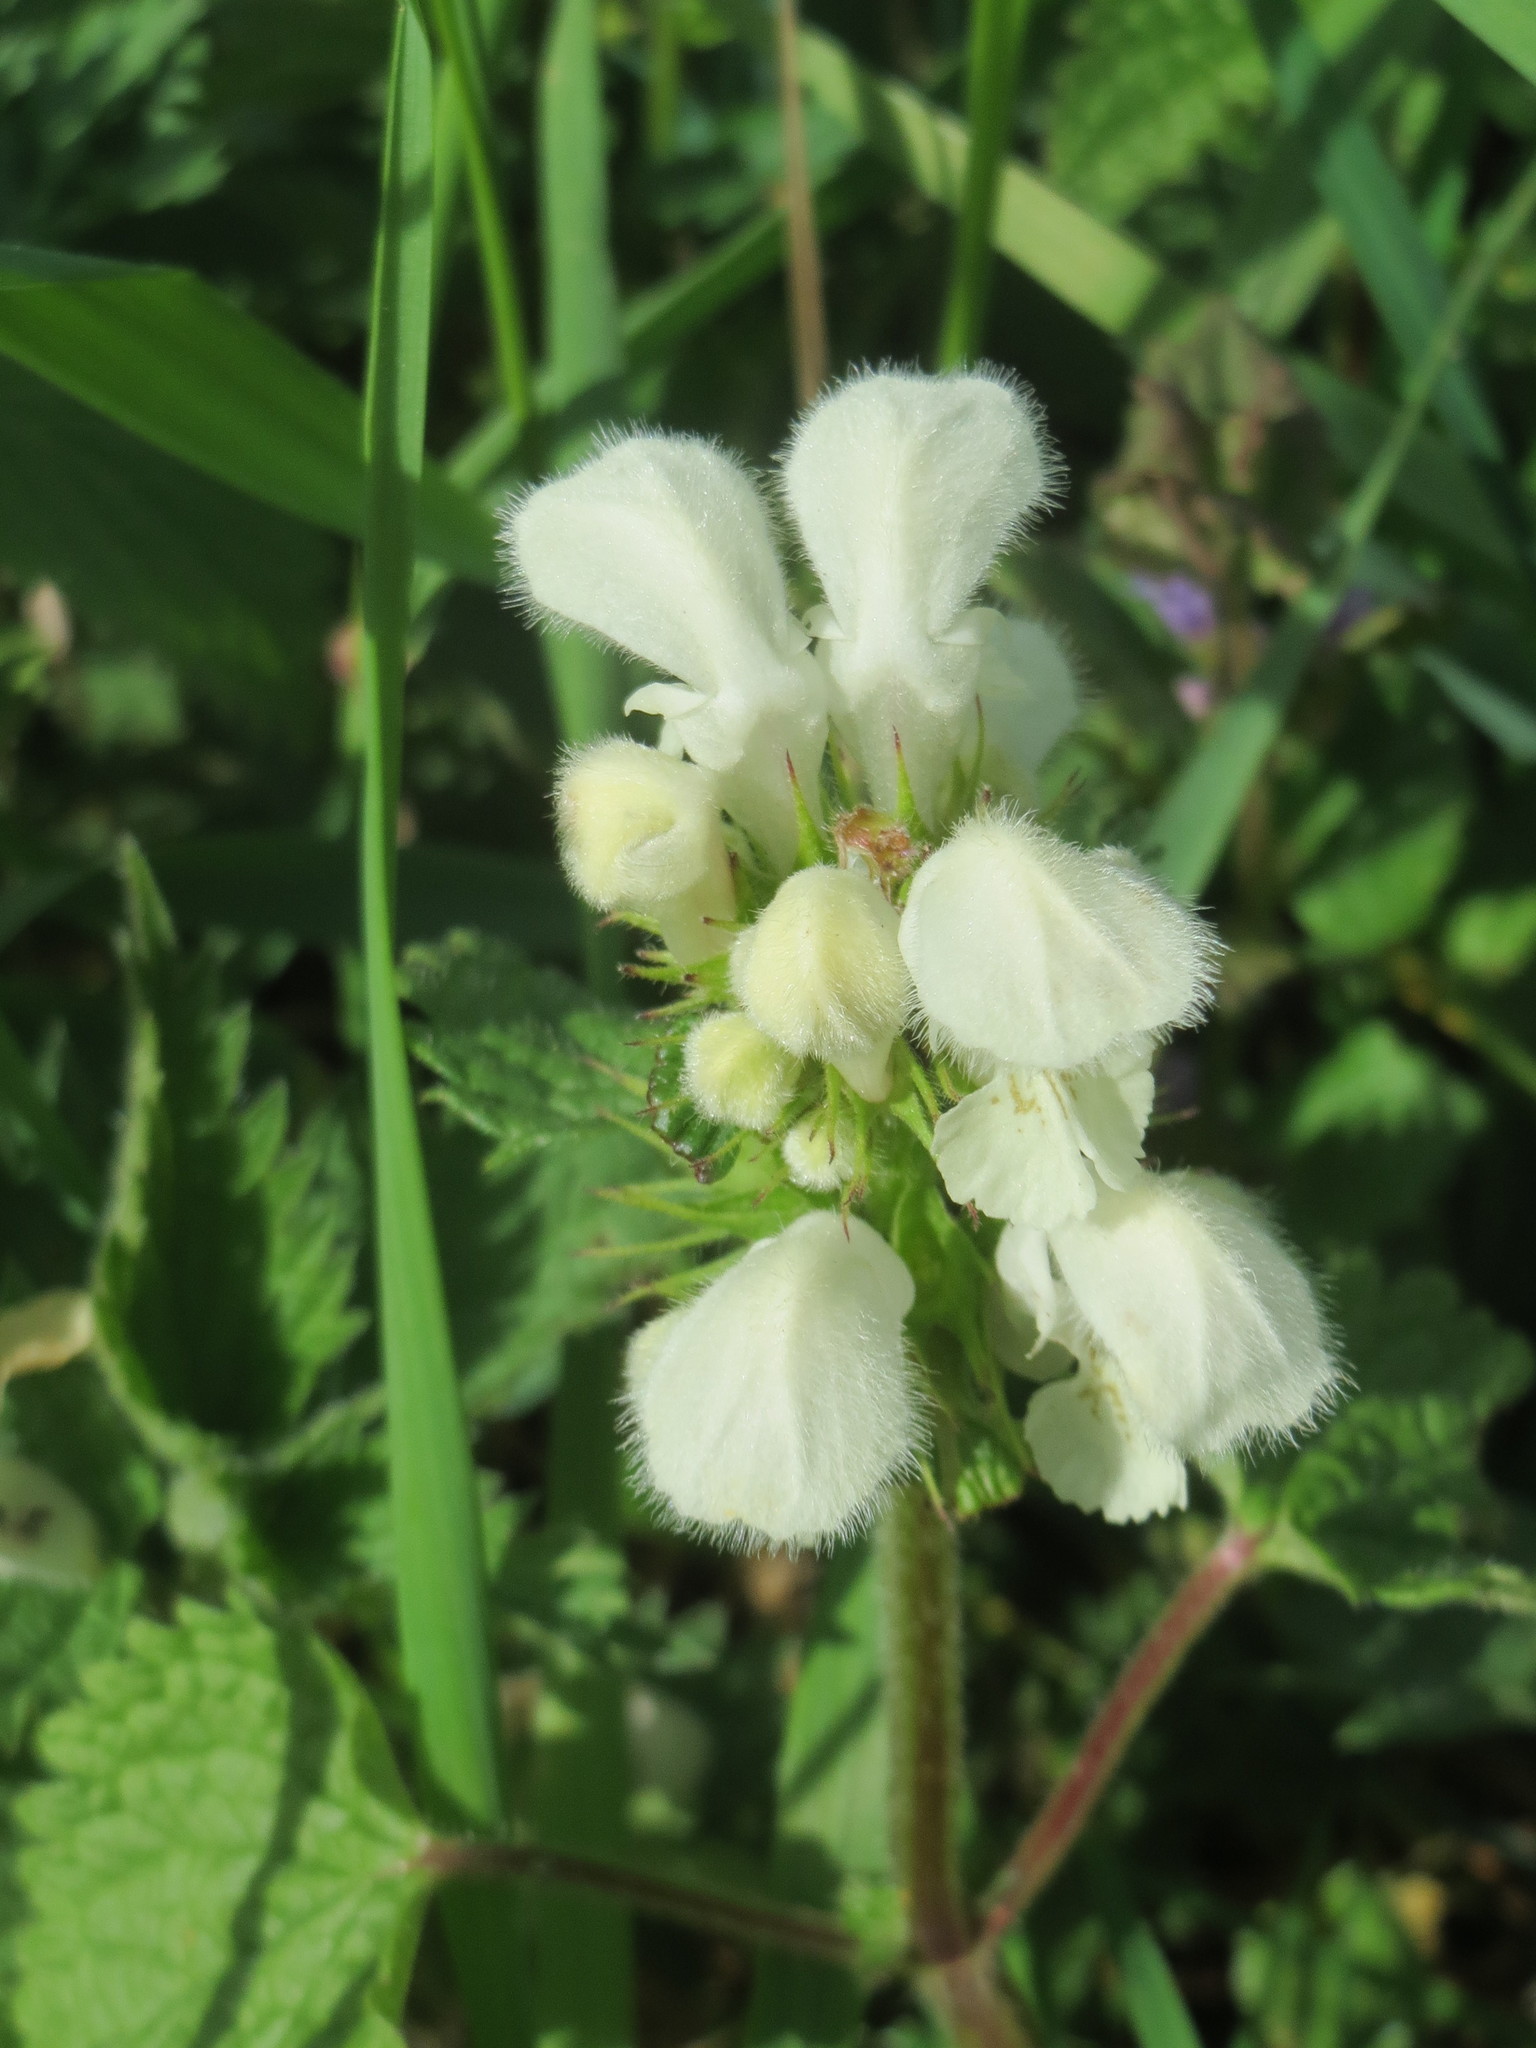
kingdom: Plantae
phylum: Tracheophyta
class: Magnoliopsida
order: Lamiales
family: Lamiaceae
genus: Lamium
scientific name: Lamium album
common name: White dead-nettle
